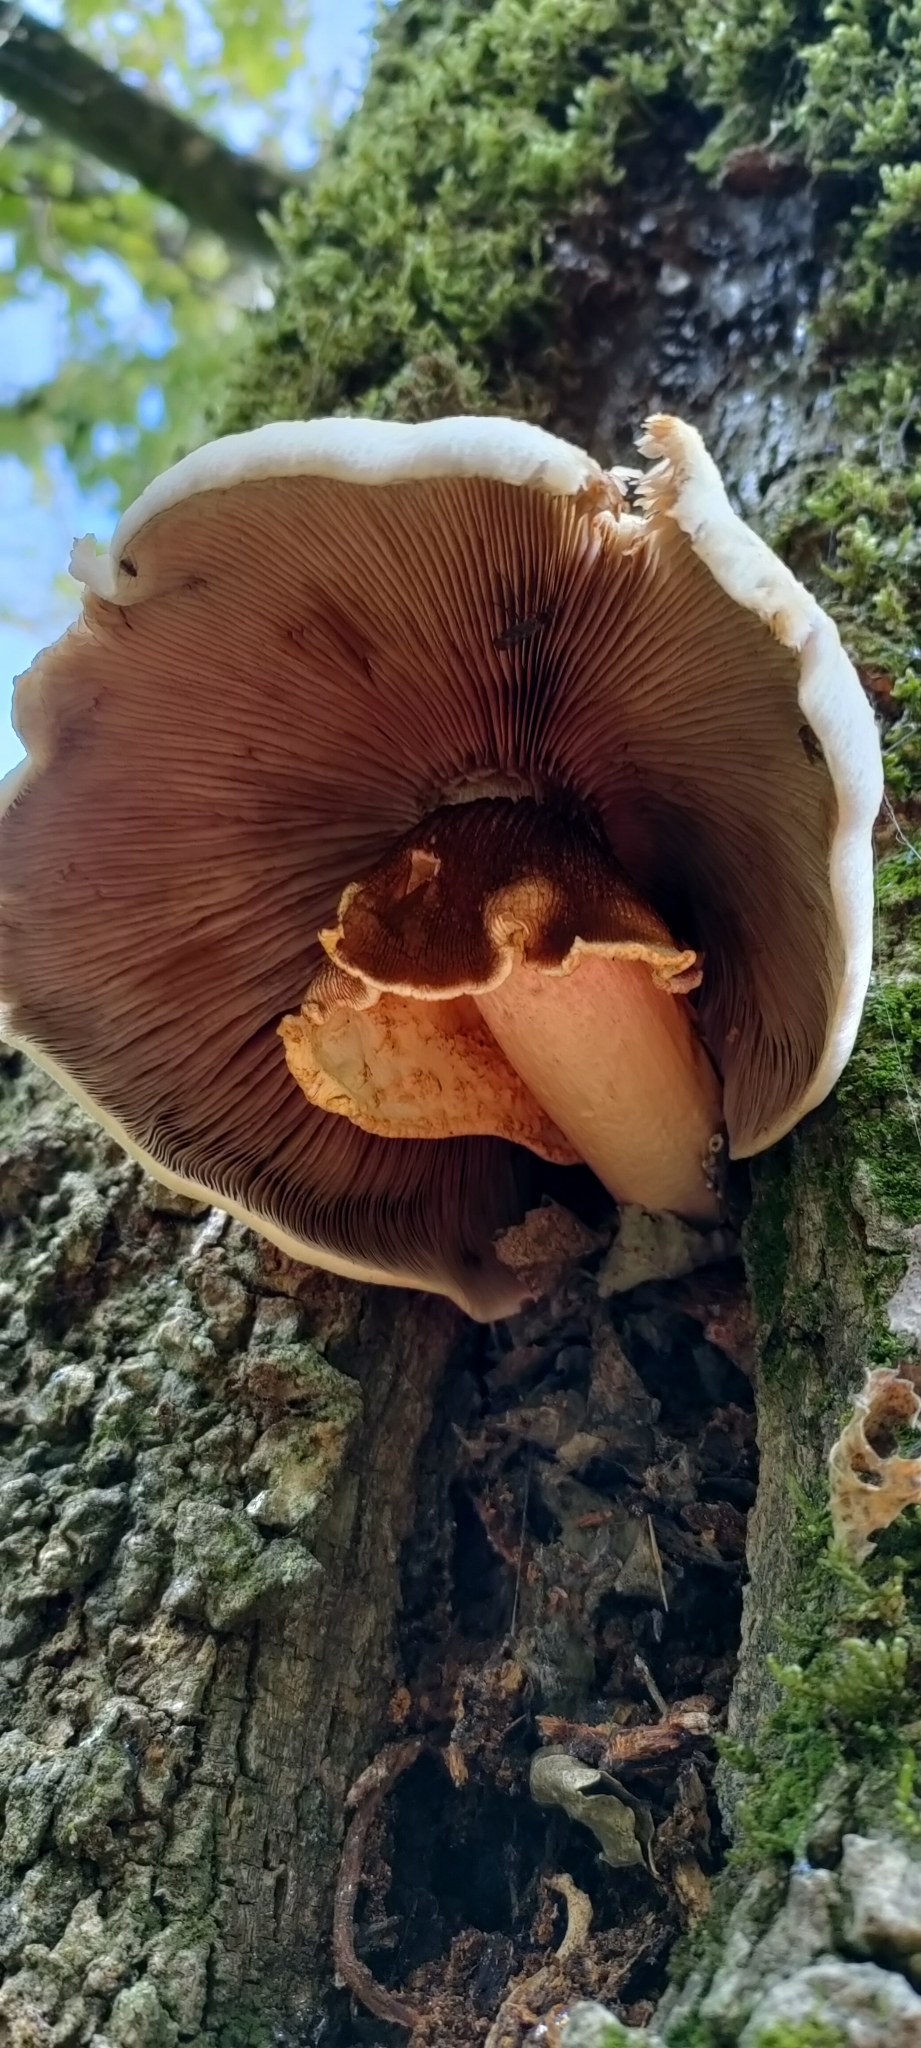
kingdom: Fungi
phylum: Basidiomycota
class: Agaricomycetes
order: Agaricales
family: Tubariaceae
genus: Cyclocybe
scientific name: Cyclocybe parasitica
